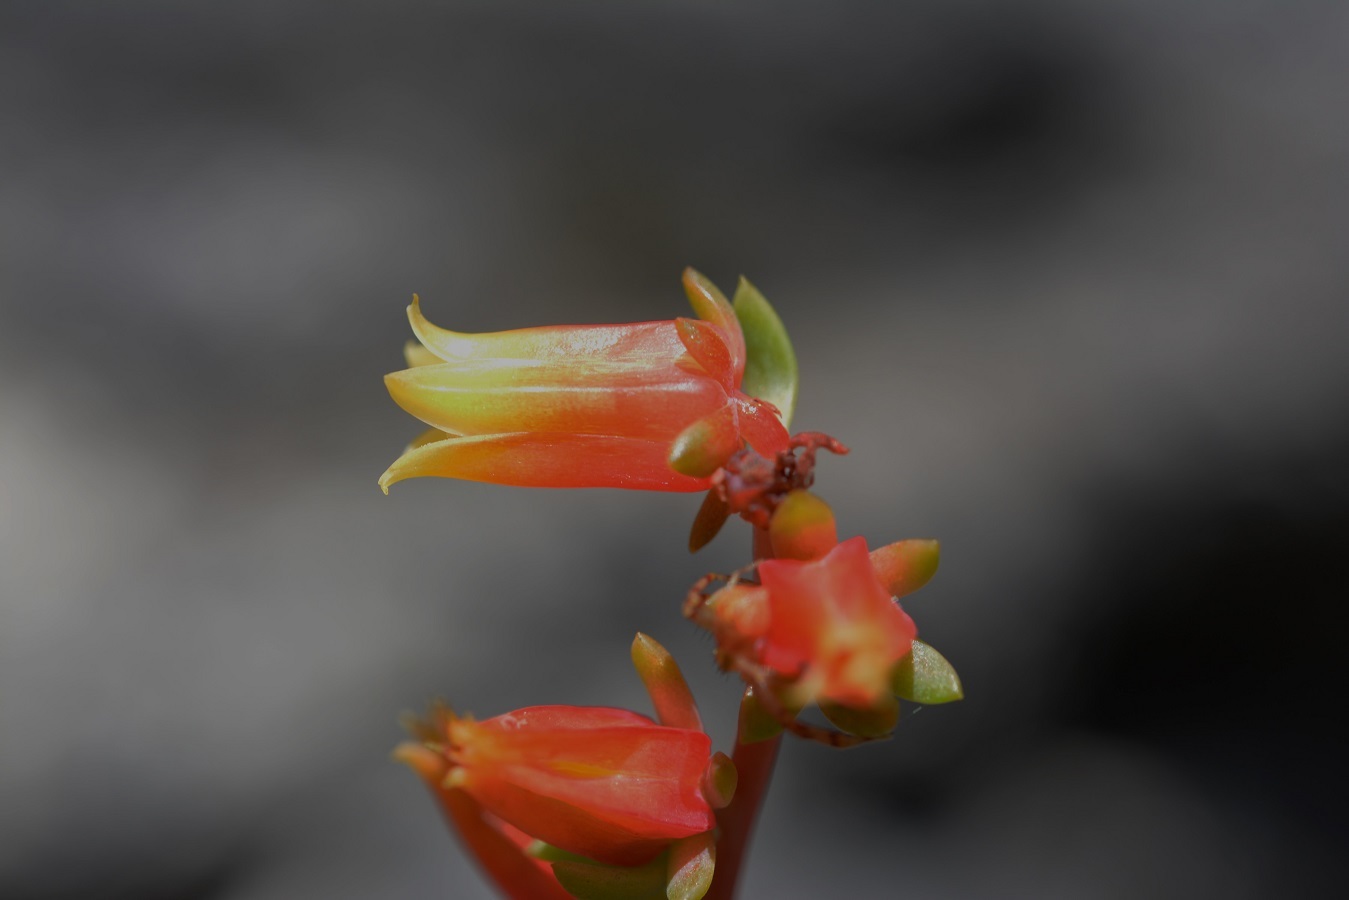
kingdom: Plantae
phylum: Tracheophyta
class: Magnoliopsida
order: Saxifragales
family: Crassulaceae
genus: Echeveria
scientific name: Echeveria bella
